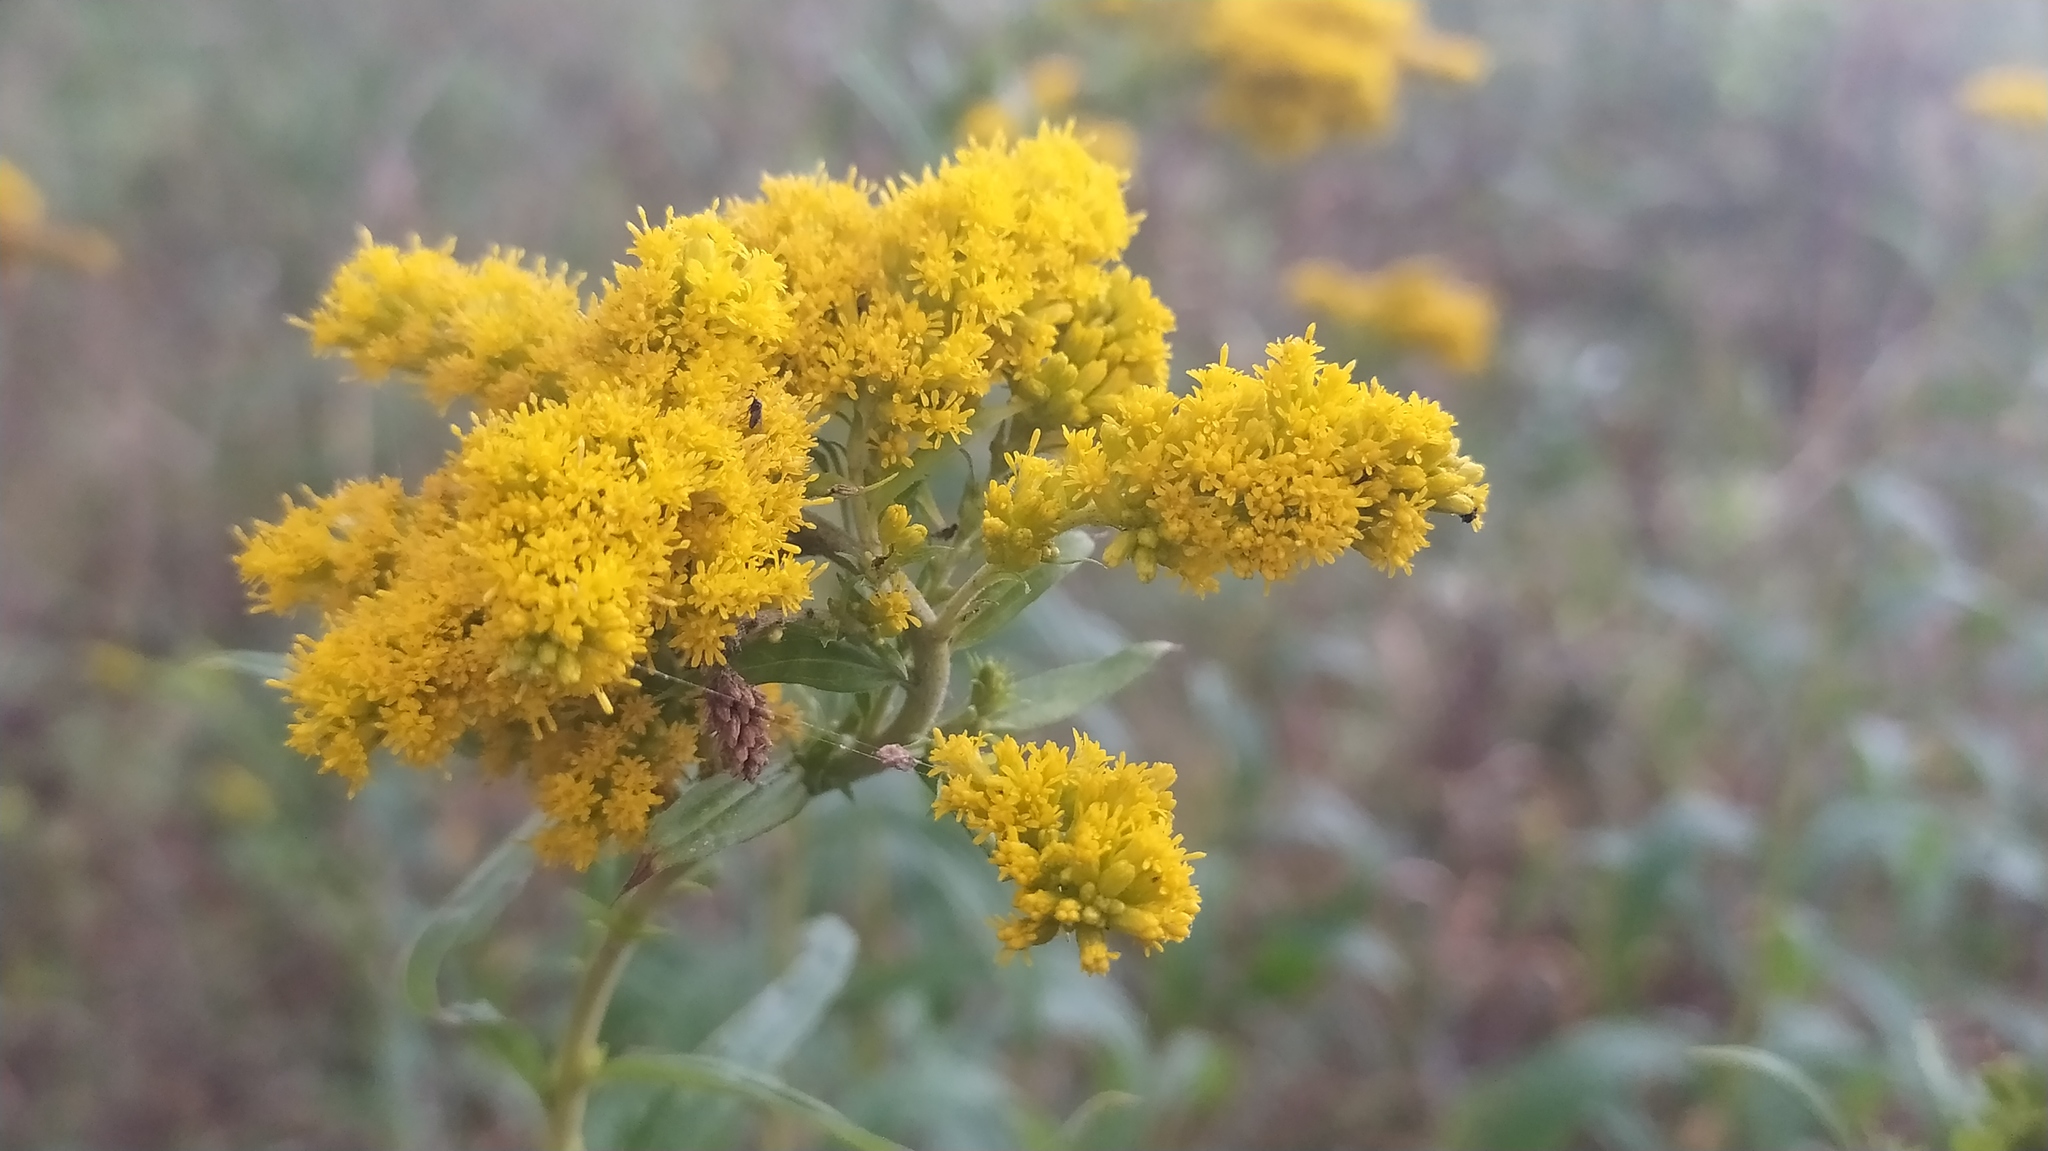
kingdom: Plantae
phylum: Tracheophyta
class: Magnoliopsida
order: Asterales
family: Asteraceae
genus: Solidago
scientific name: Solidago canadensis
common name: Canada goldenrod
